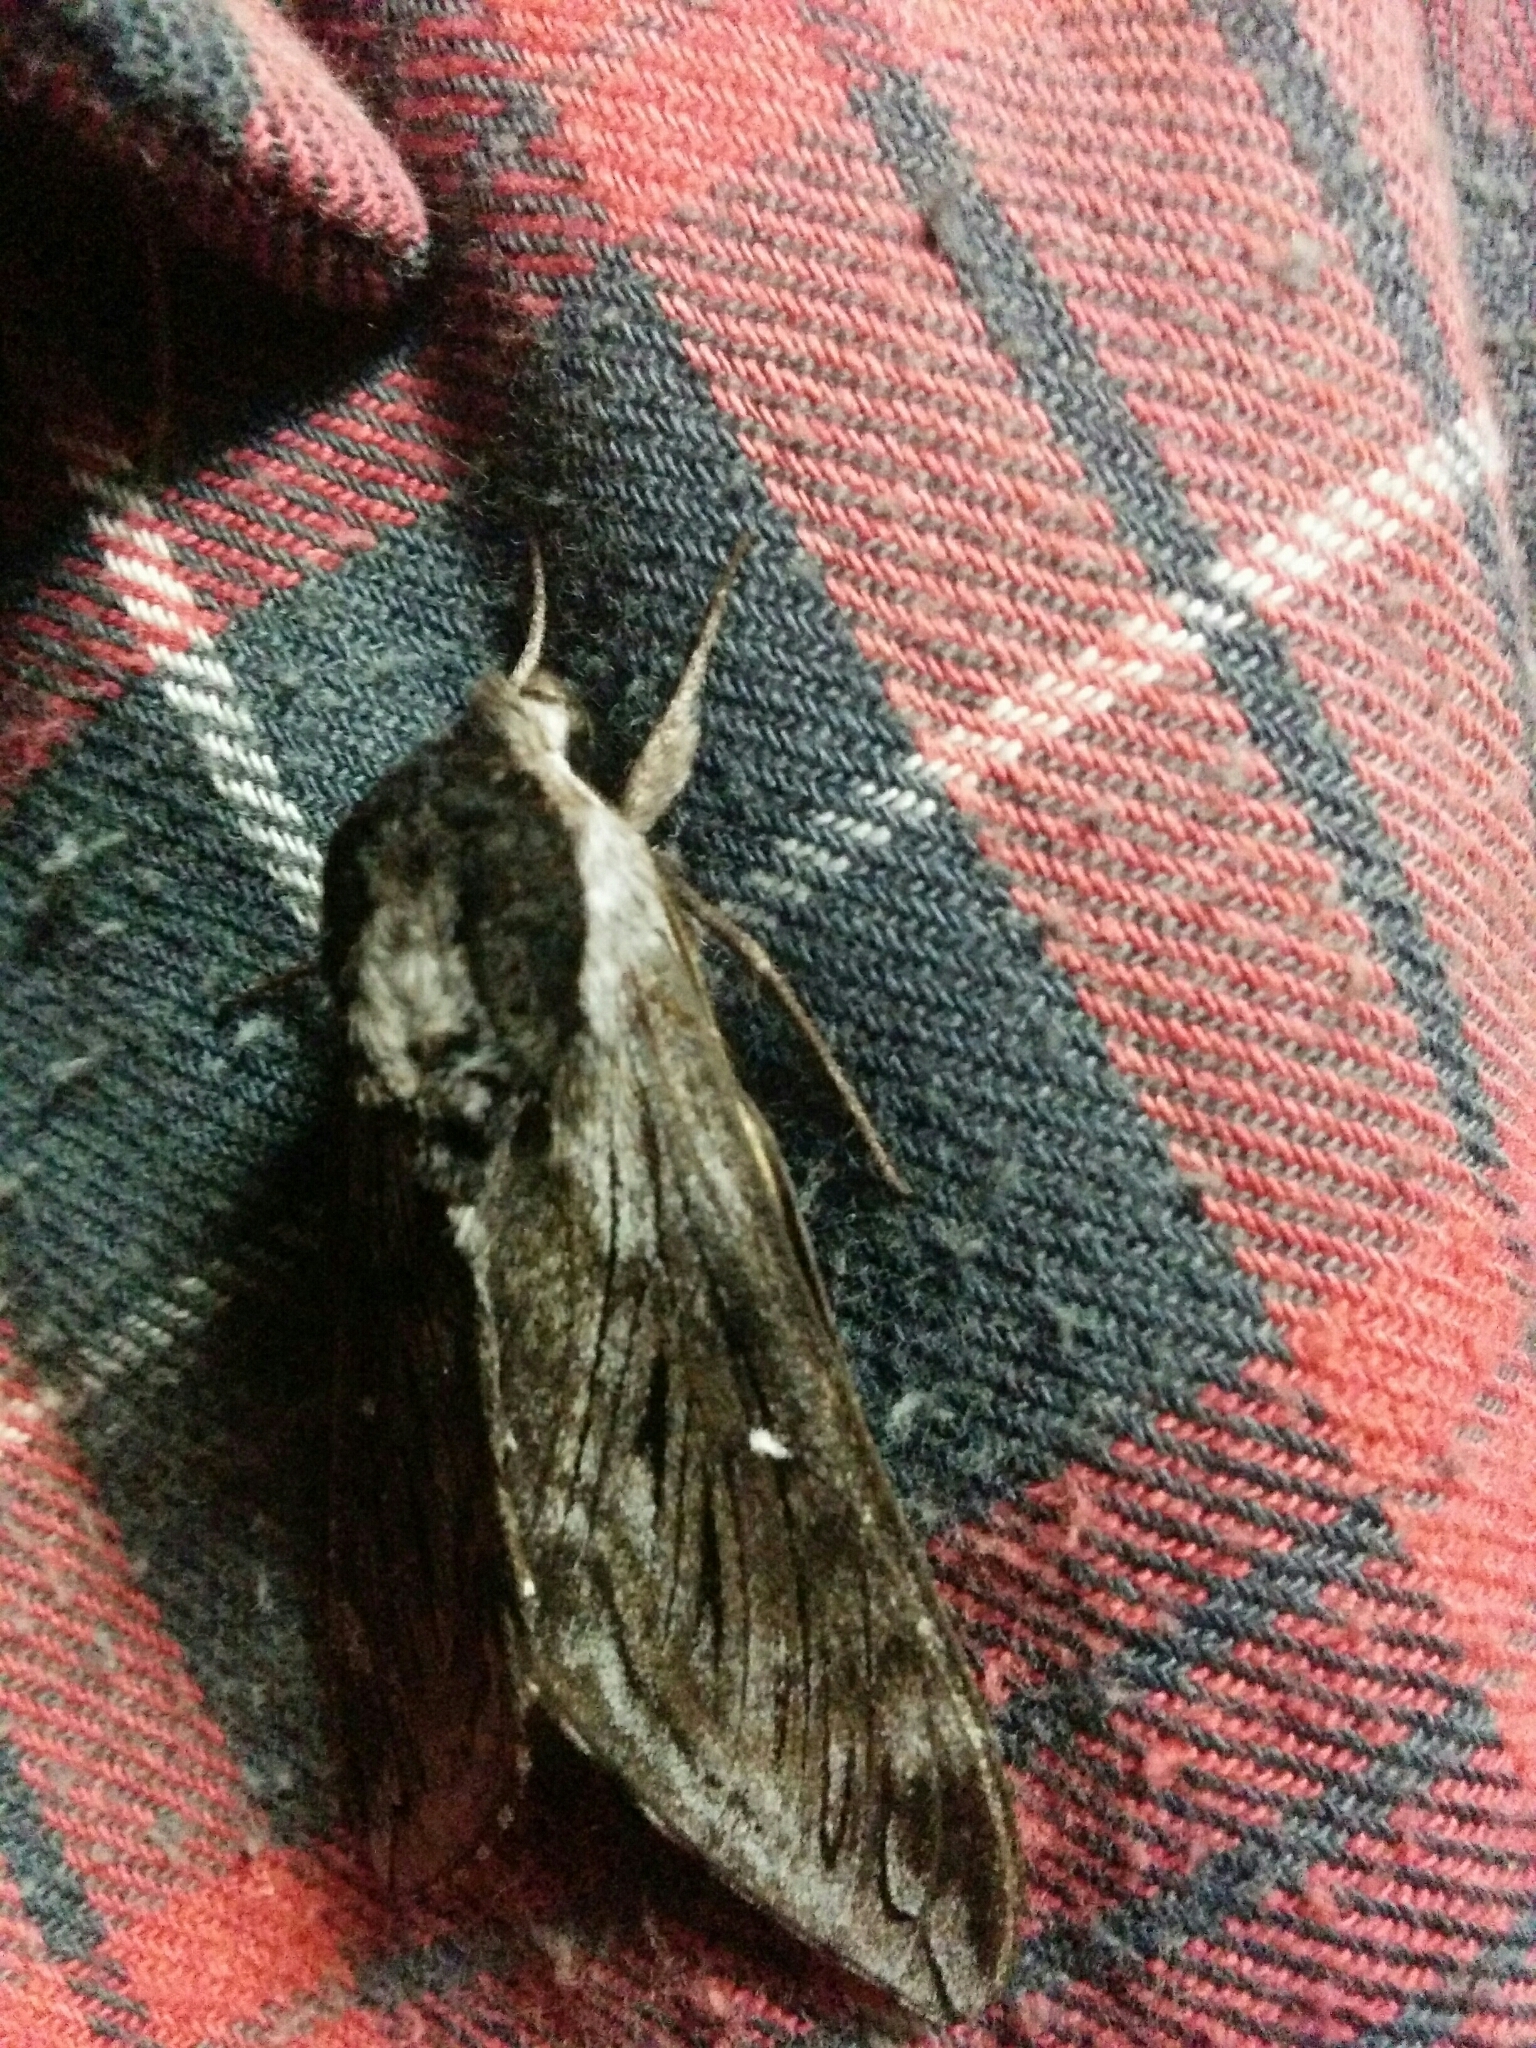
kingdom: Animalia
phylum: Arthropoda
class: Insecta
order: Lepidoptera
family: Sphingidae
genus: Sphinx
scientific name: Sphinx poecila
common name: Northern apple sphinx
